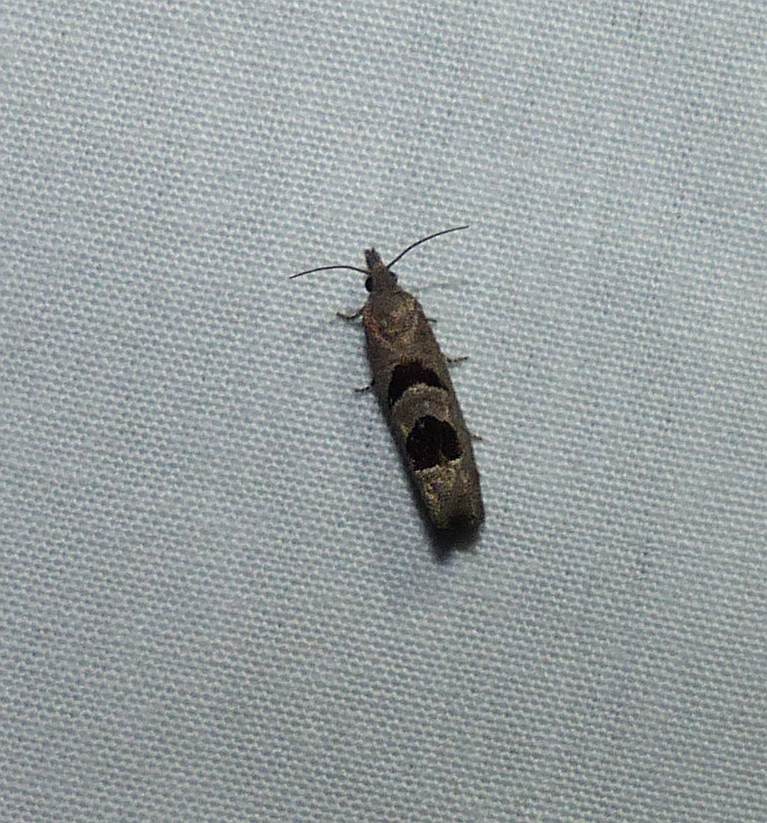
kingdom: Animalia
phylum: Arthropoda
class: Insecta
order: Lepidoptera
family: Tortricidae
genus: Eucosma
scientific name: Eucosma tomonana
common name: Aster-head eucosma moth
